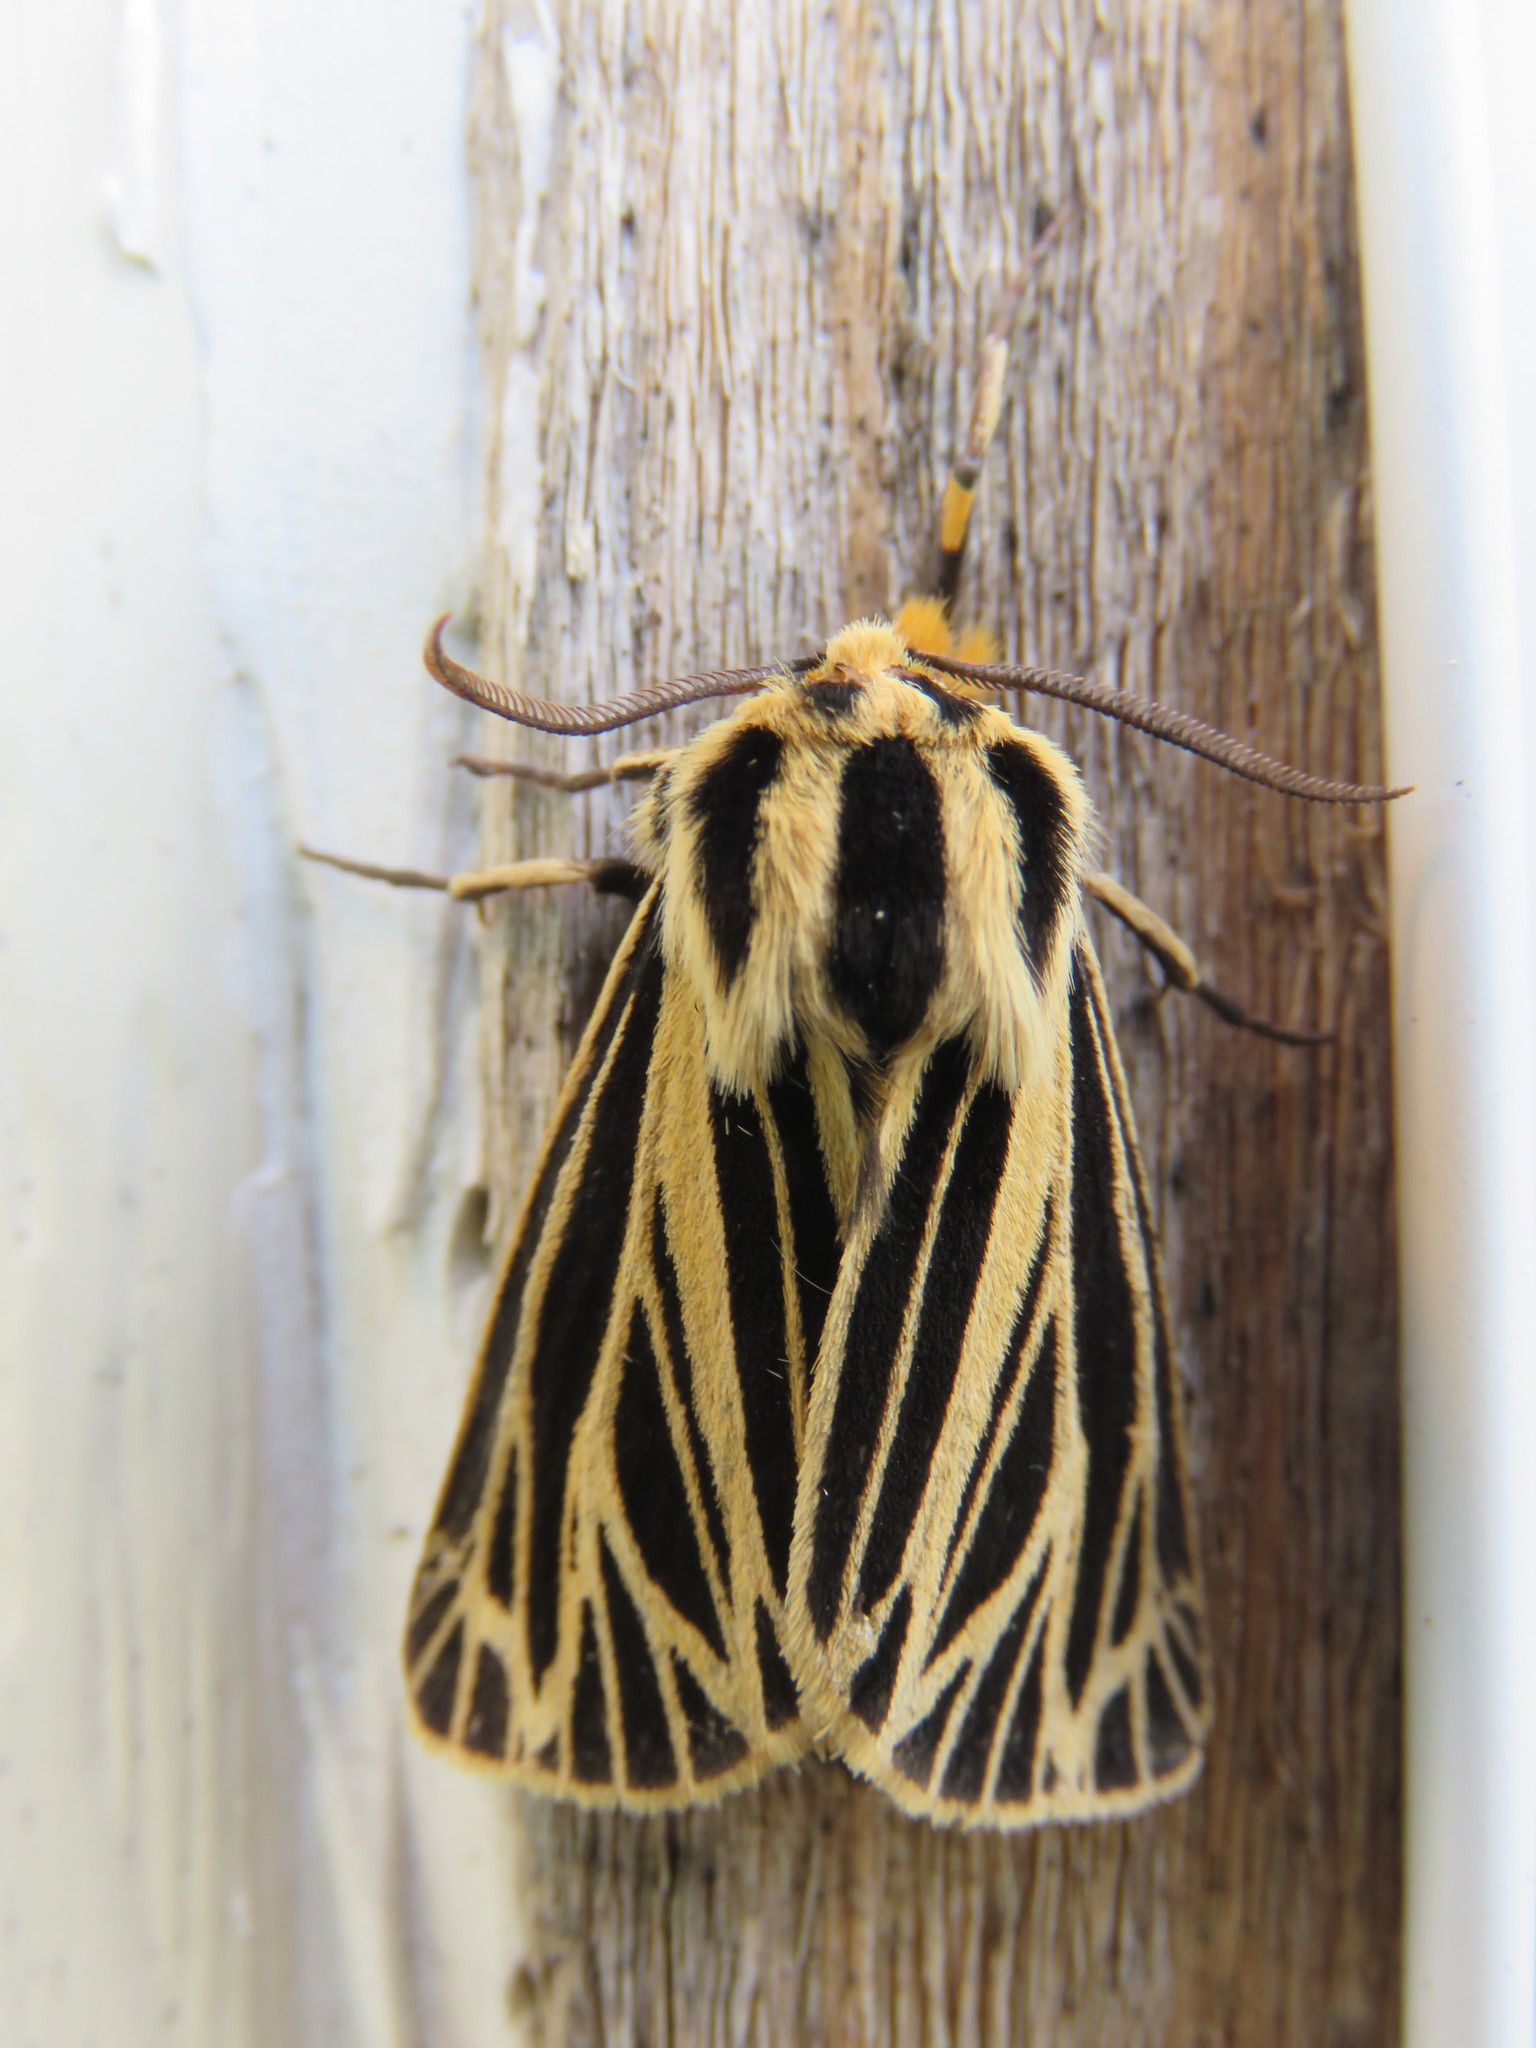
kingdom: Animalia
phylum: Arthropoda
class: Insecta
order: Lepidoptera
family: Erebidae
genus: Grammia
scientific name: Grammia virguncula
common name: Little tiger moth
